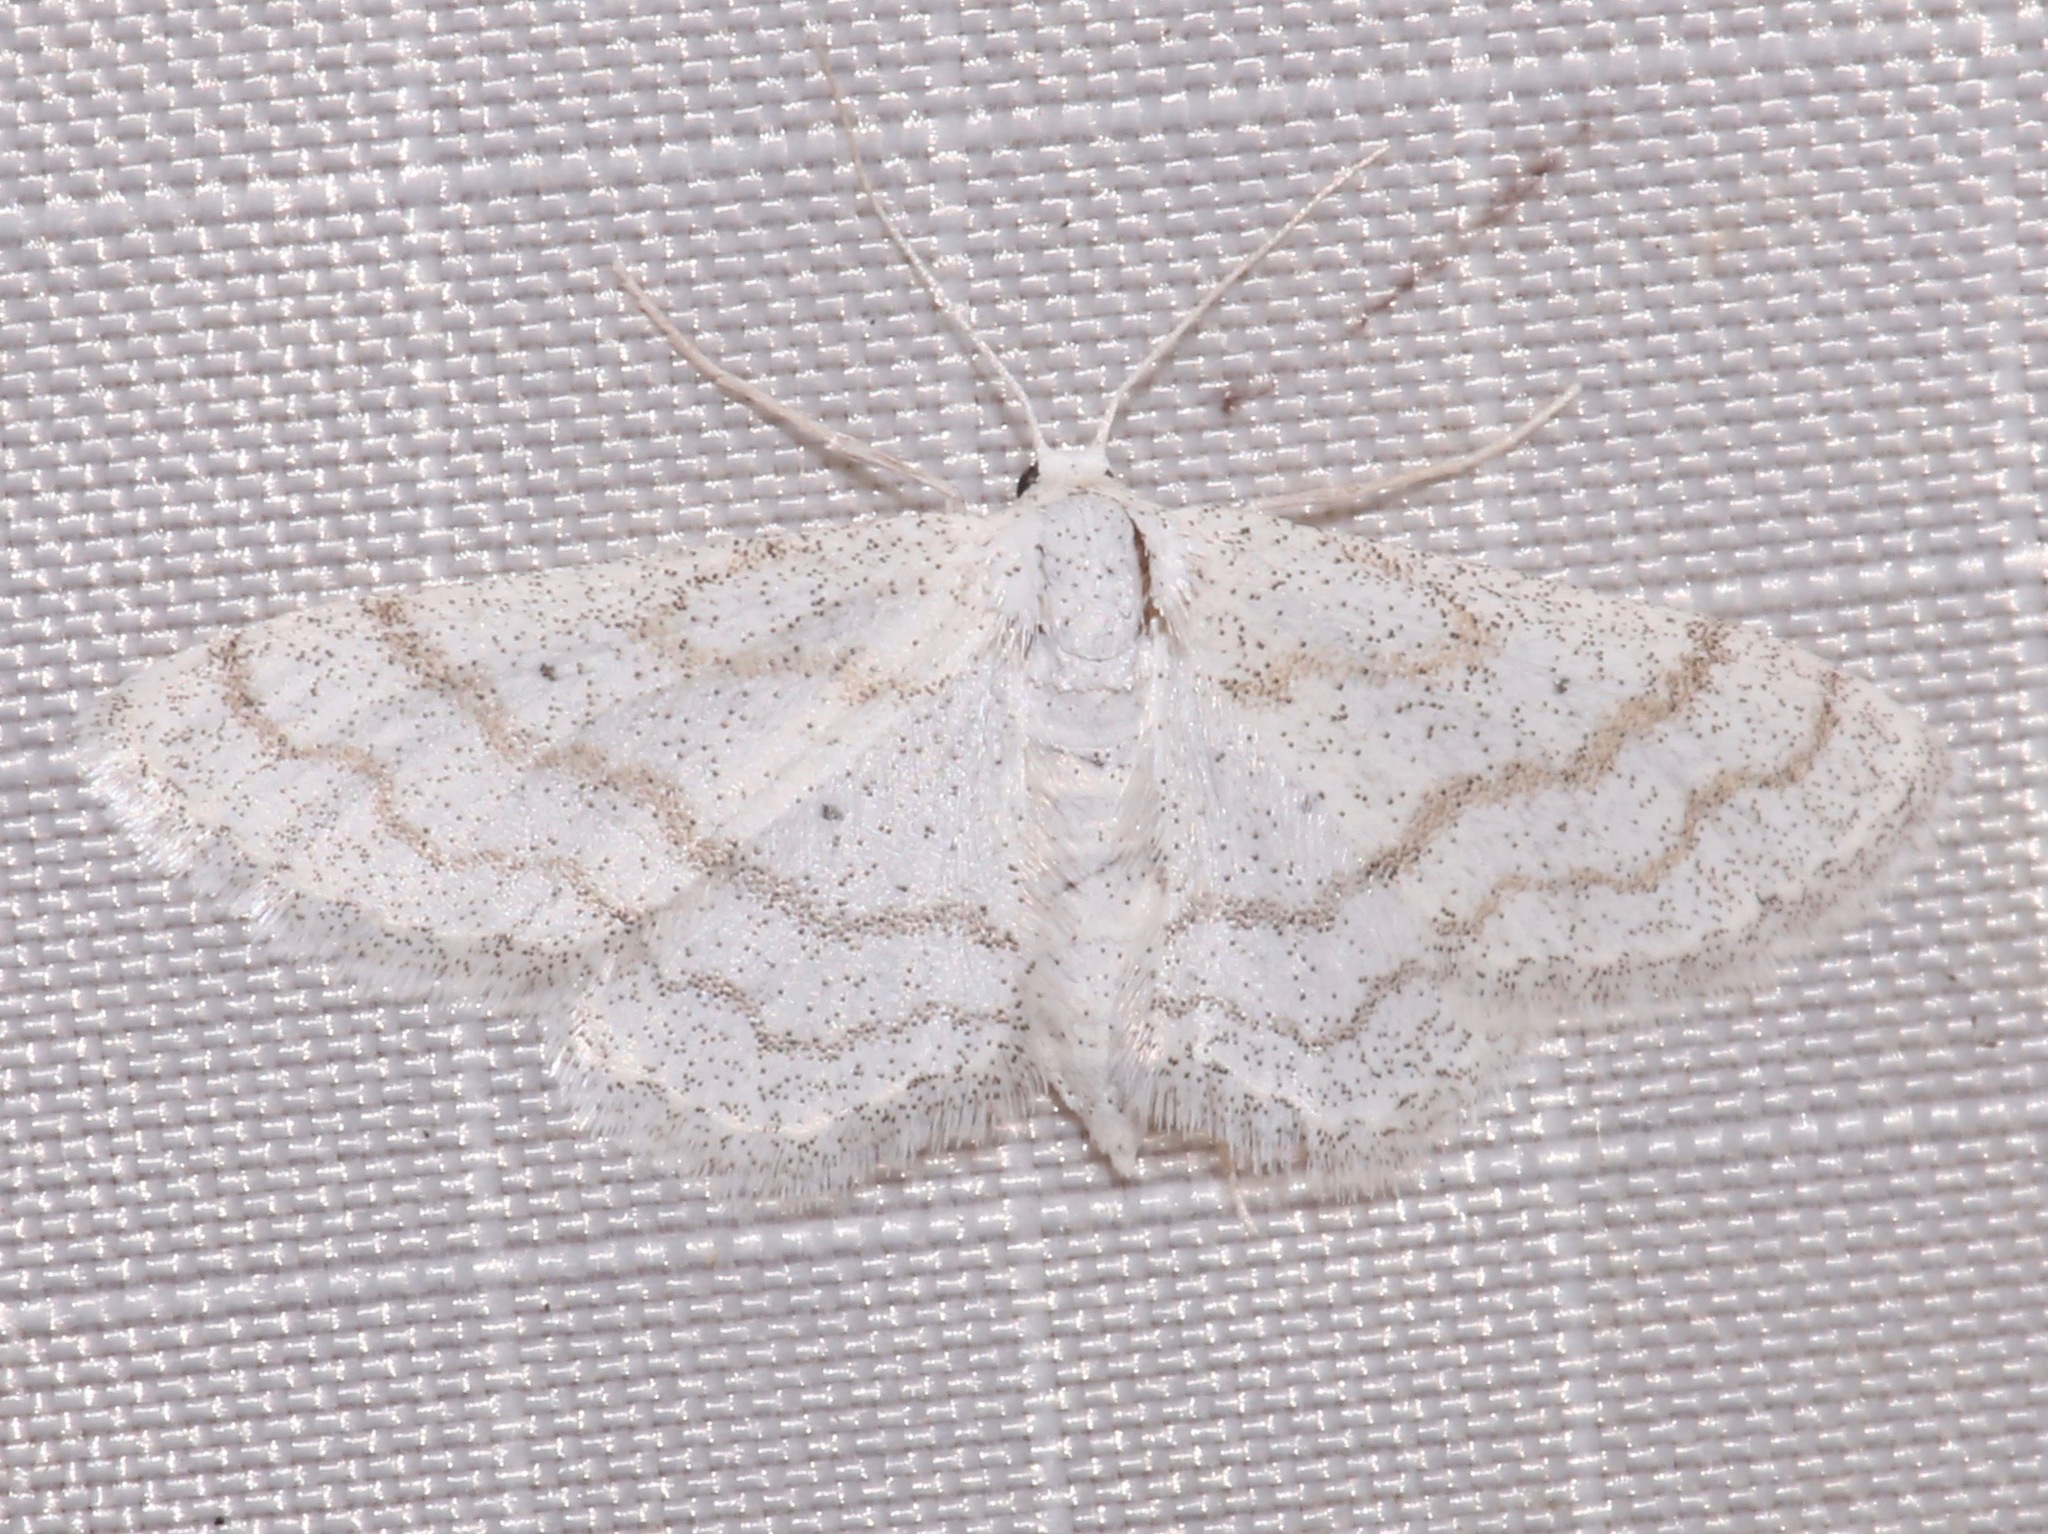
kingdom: Animalia
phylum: Arthropoda
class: Insecta
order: Lepidoptera
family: Geometridae
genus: Lobocleta
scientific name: Lobocleta peralbata
